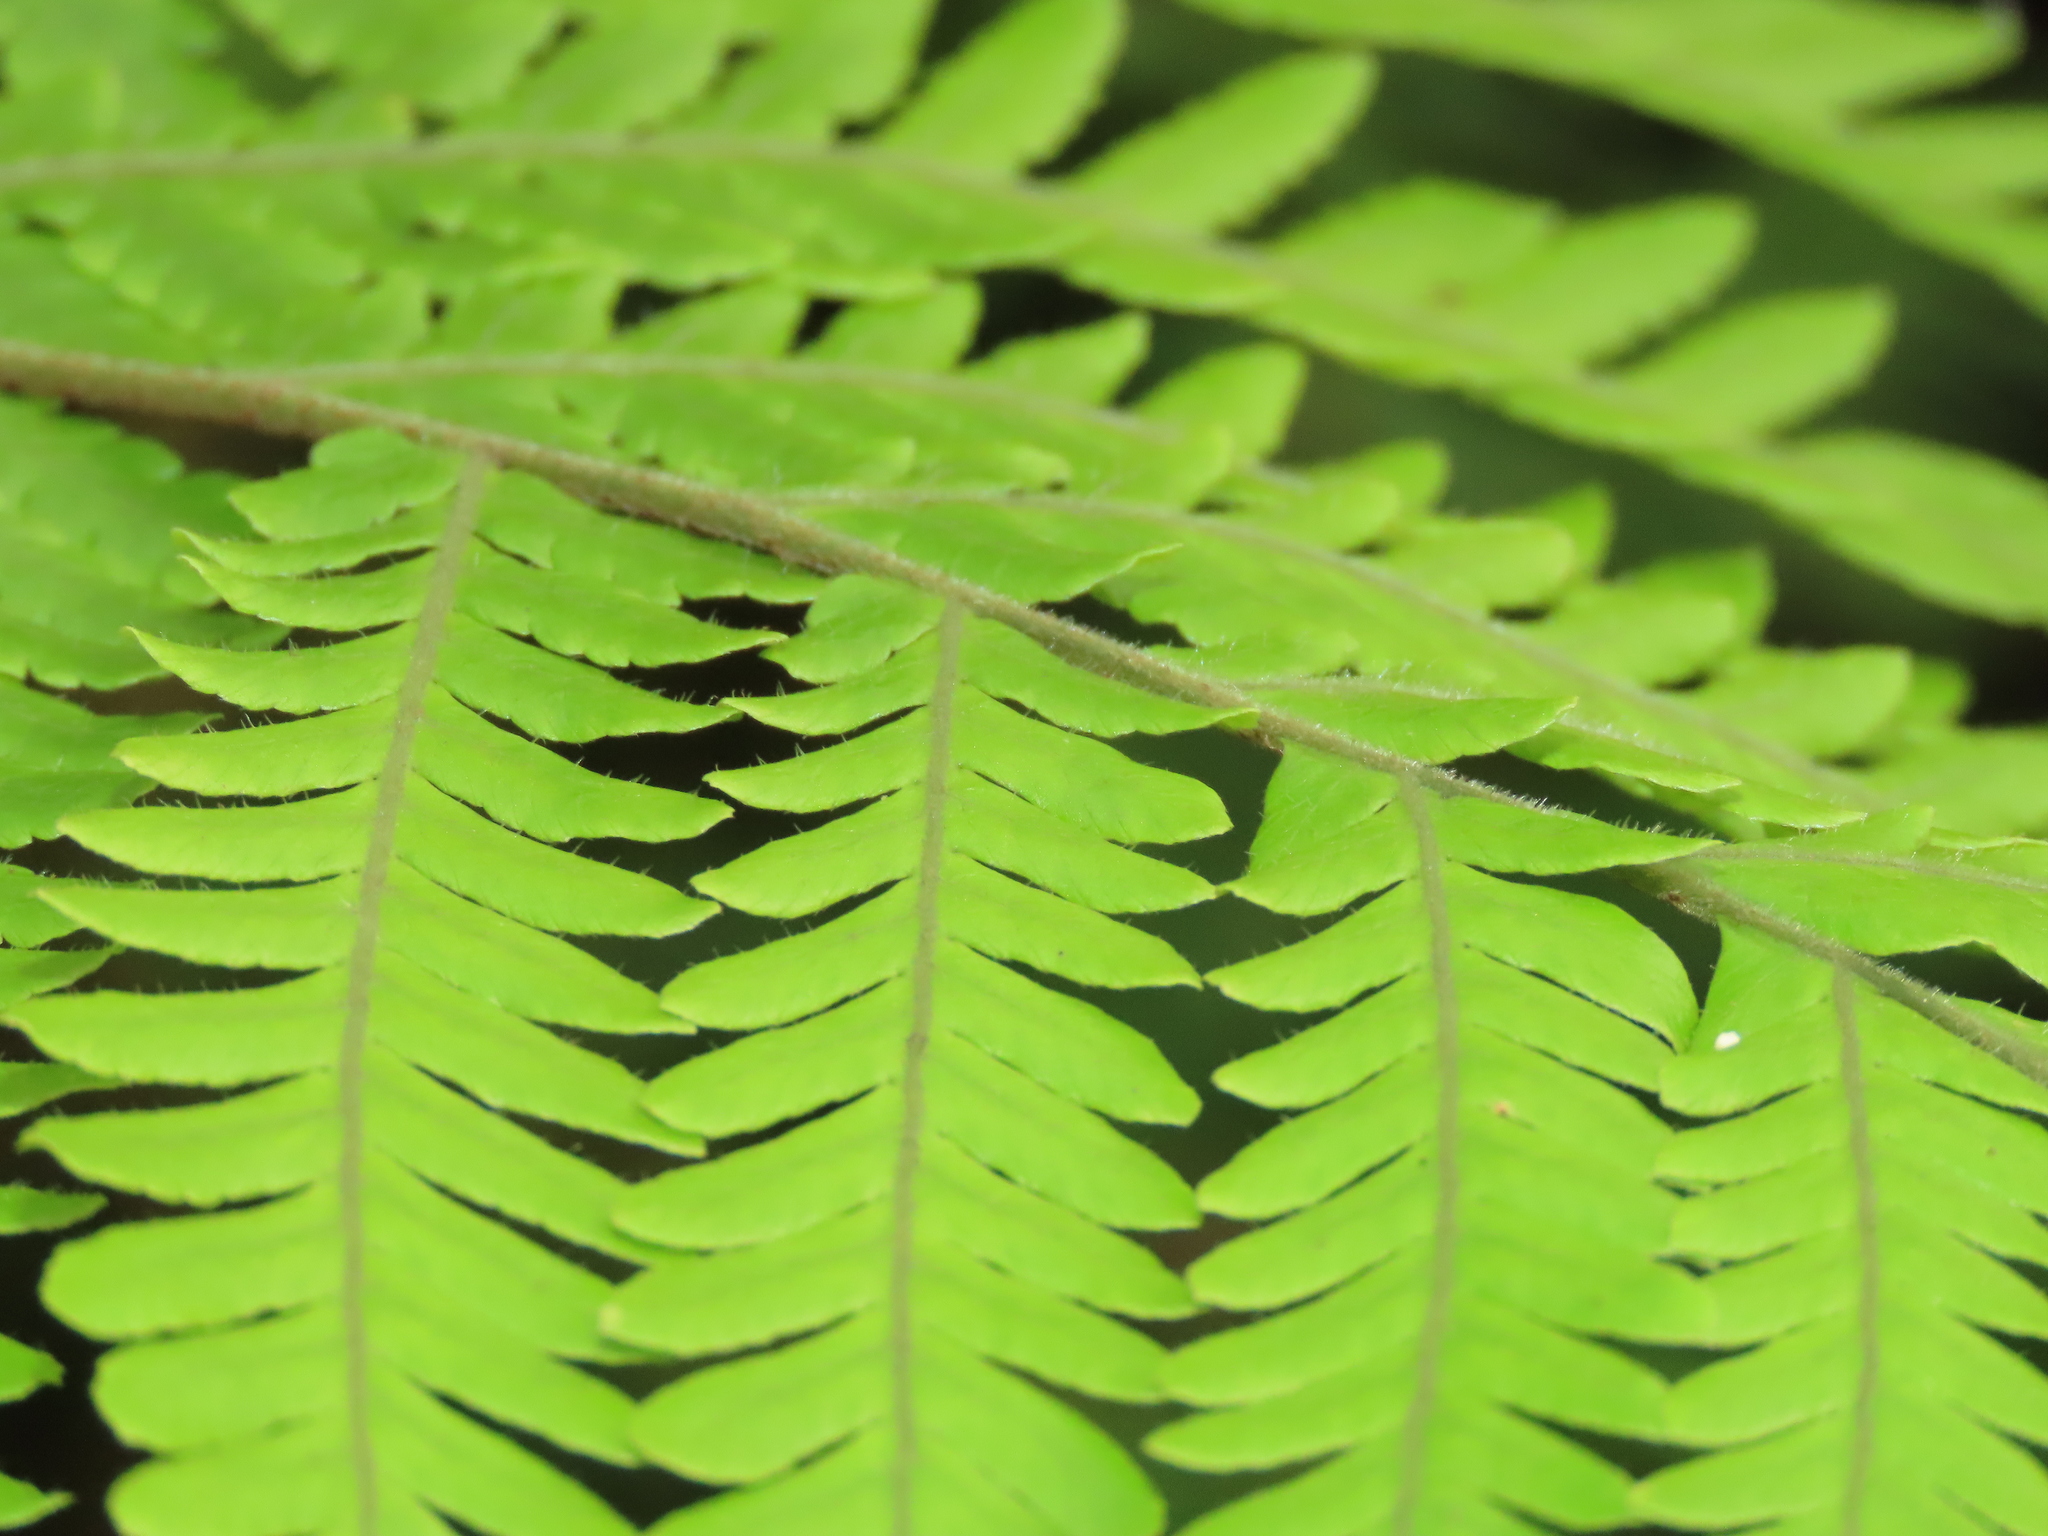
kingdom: Plantae
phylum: Tracheophyta
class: Polypodiopsida
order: Polypodiales
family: Dryopteridaceae
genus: Ctenitis
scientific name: Ctenitis subglandulosa
